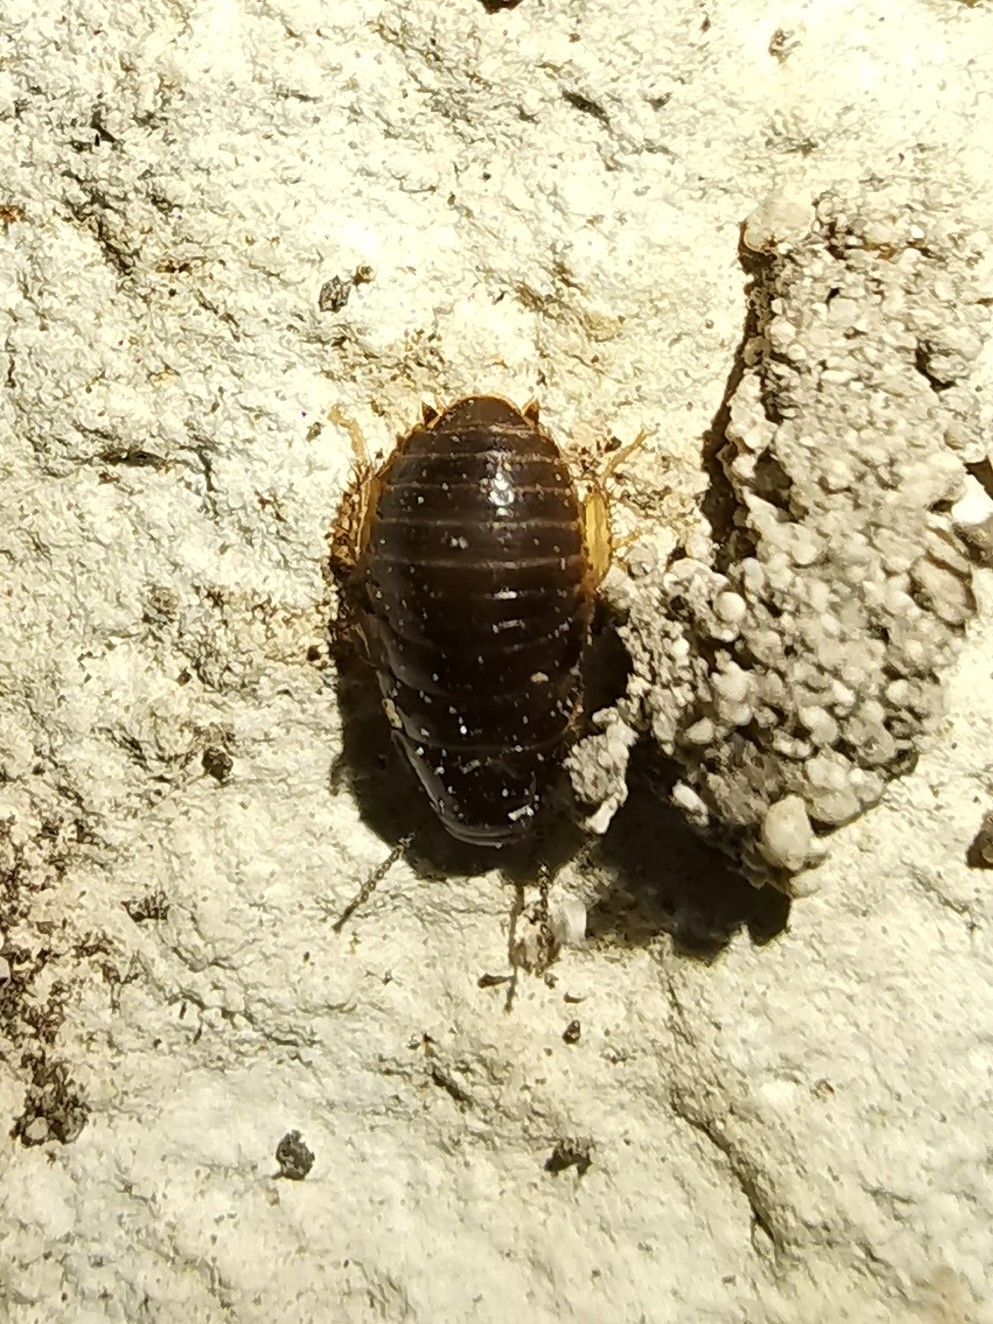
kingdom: Animalia
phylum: Arthropoda
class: Insecta
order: Blattodea
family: Blaberidae
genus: Pycnoscelus
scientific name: Pycnoscelus surinamensis
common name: Surinam cockroach
